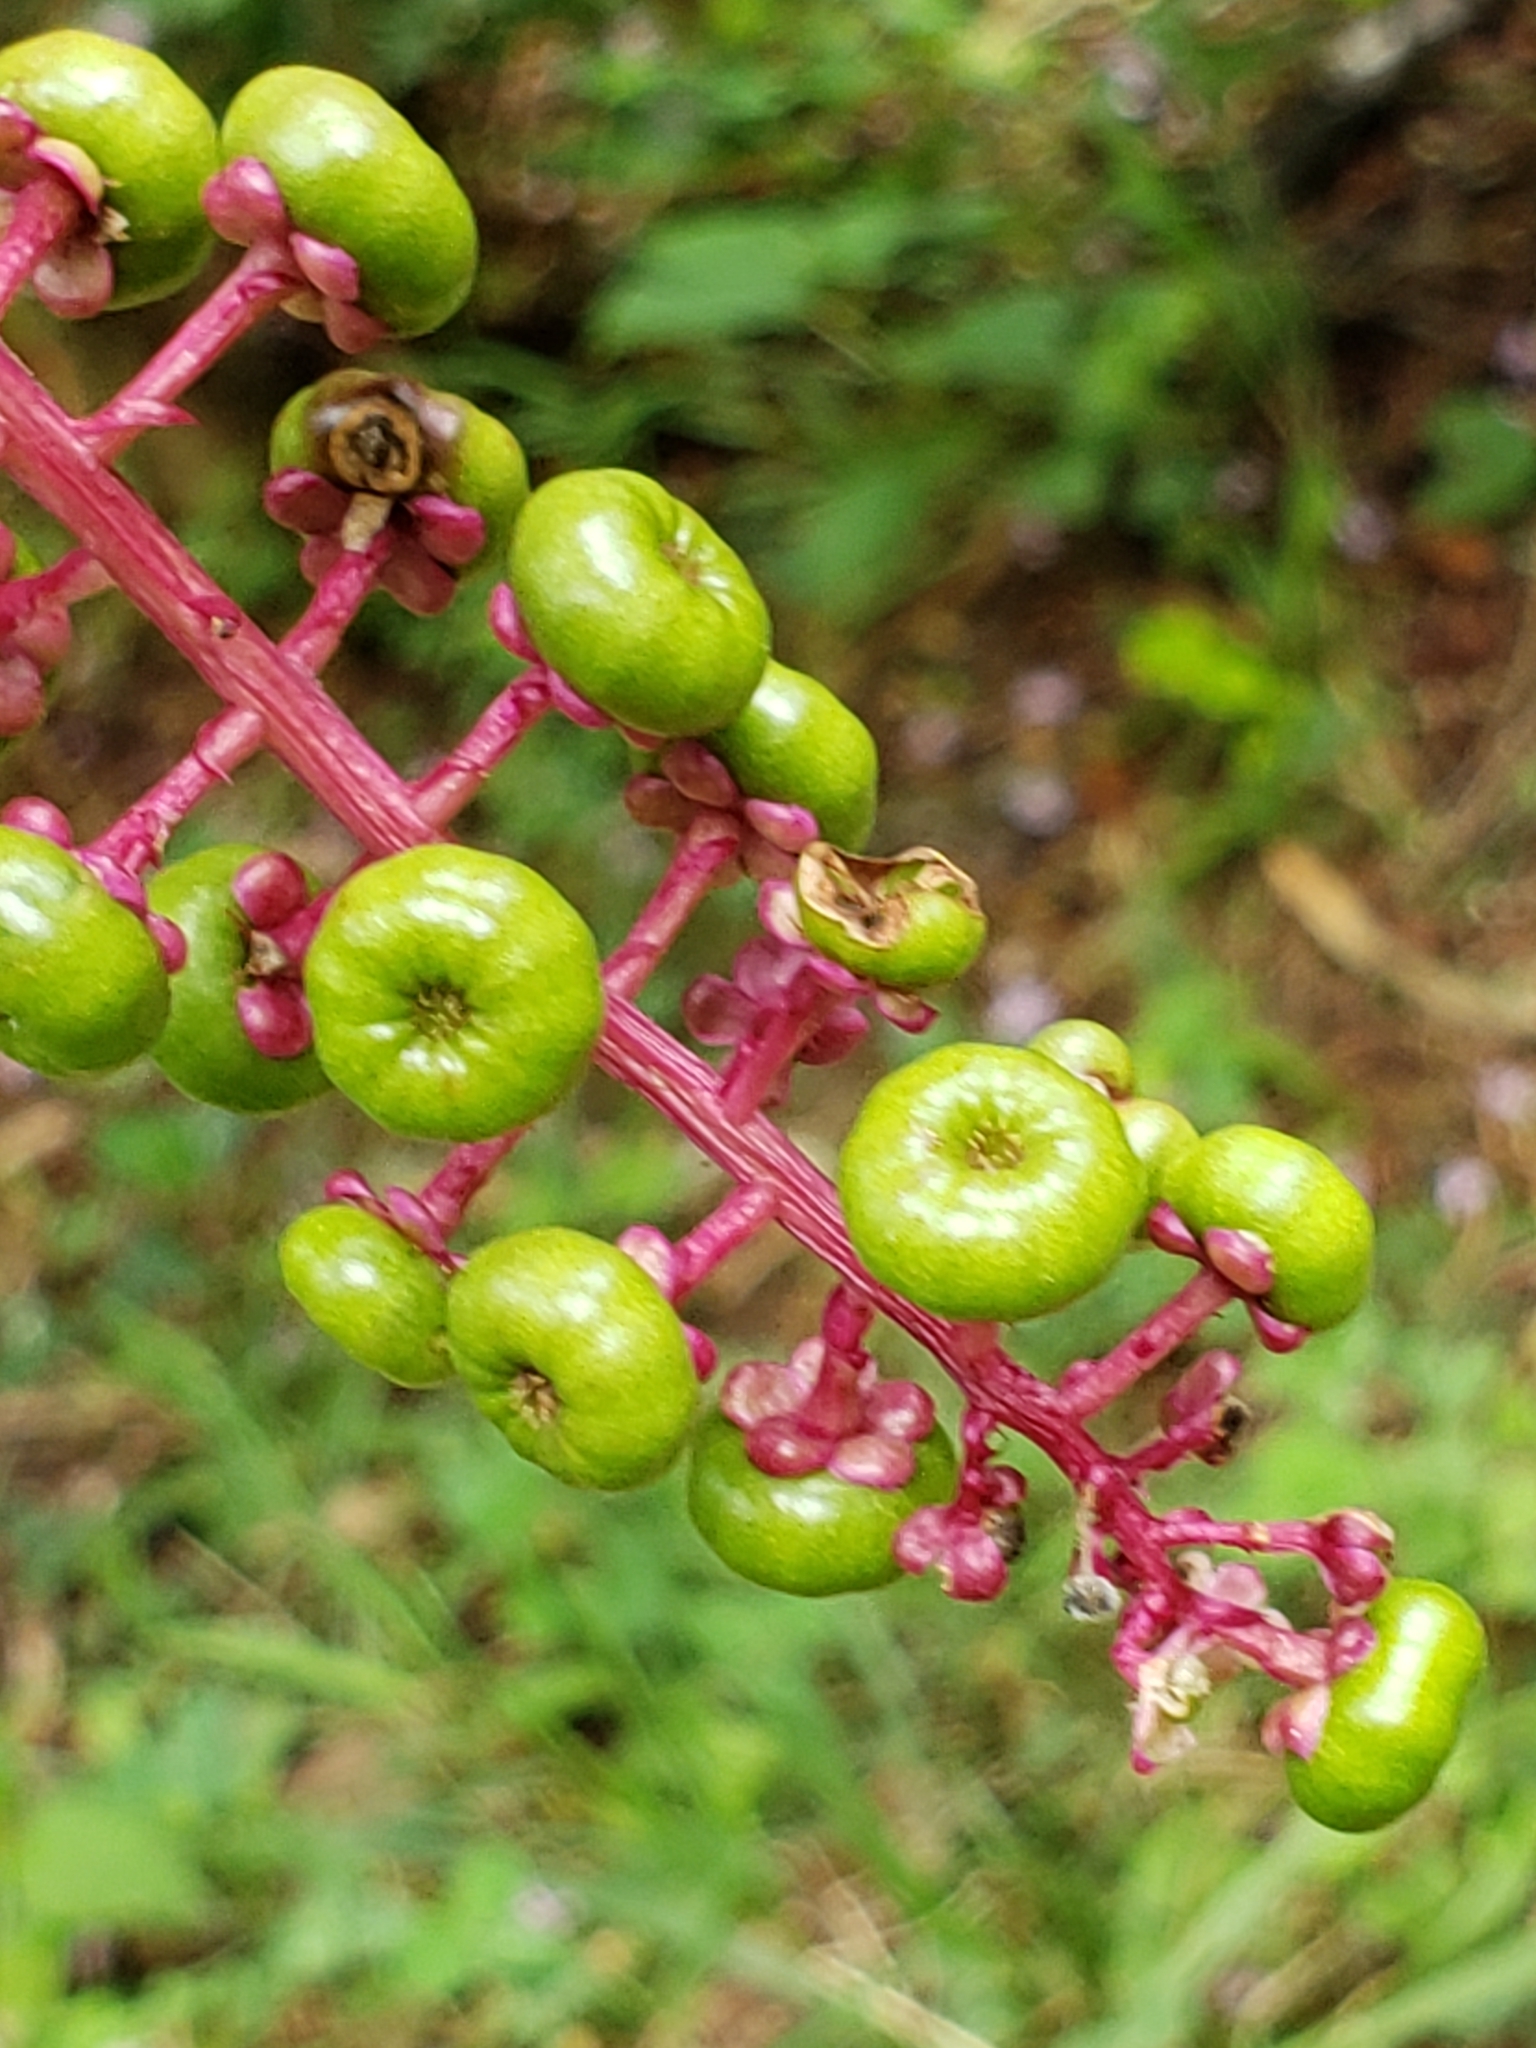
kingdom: Plantae
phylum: Tracheophyta
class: Magnoliopsida
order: Caryophyllales
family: Phytolaccaceae
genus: Phytolacca
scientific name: Phytolacca americana
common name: American pokeweed
